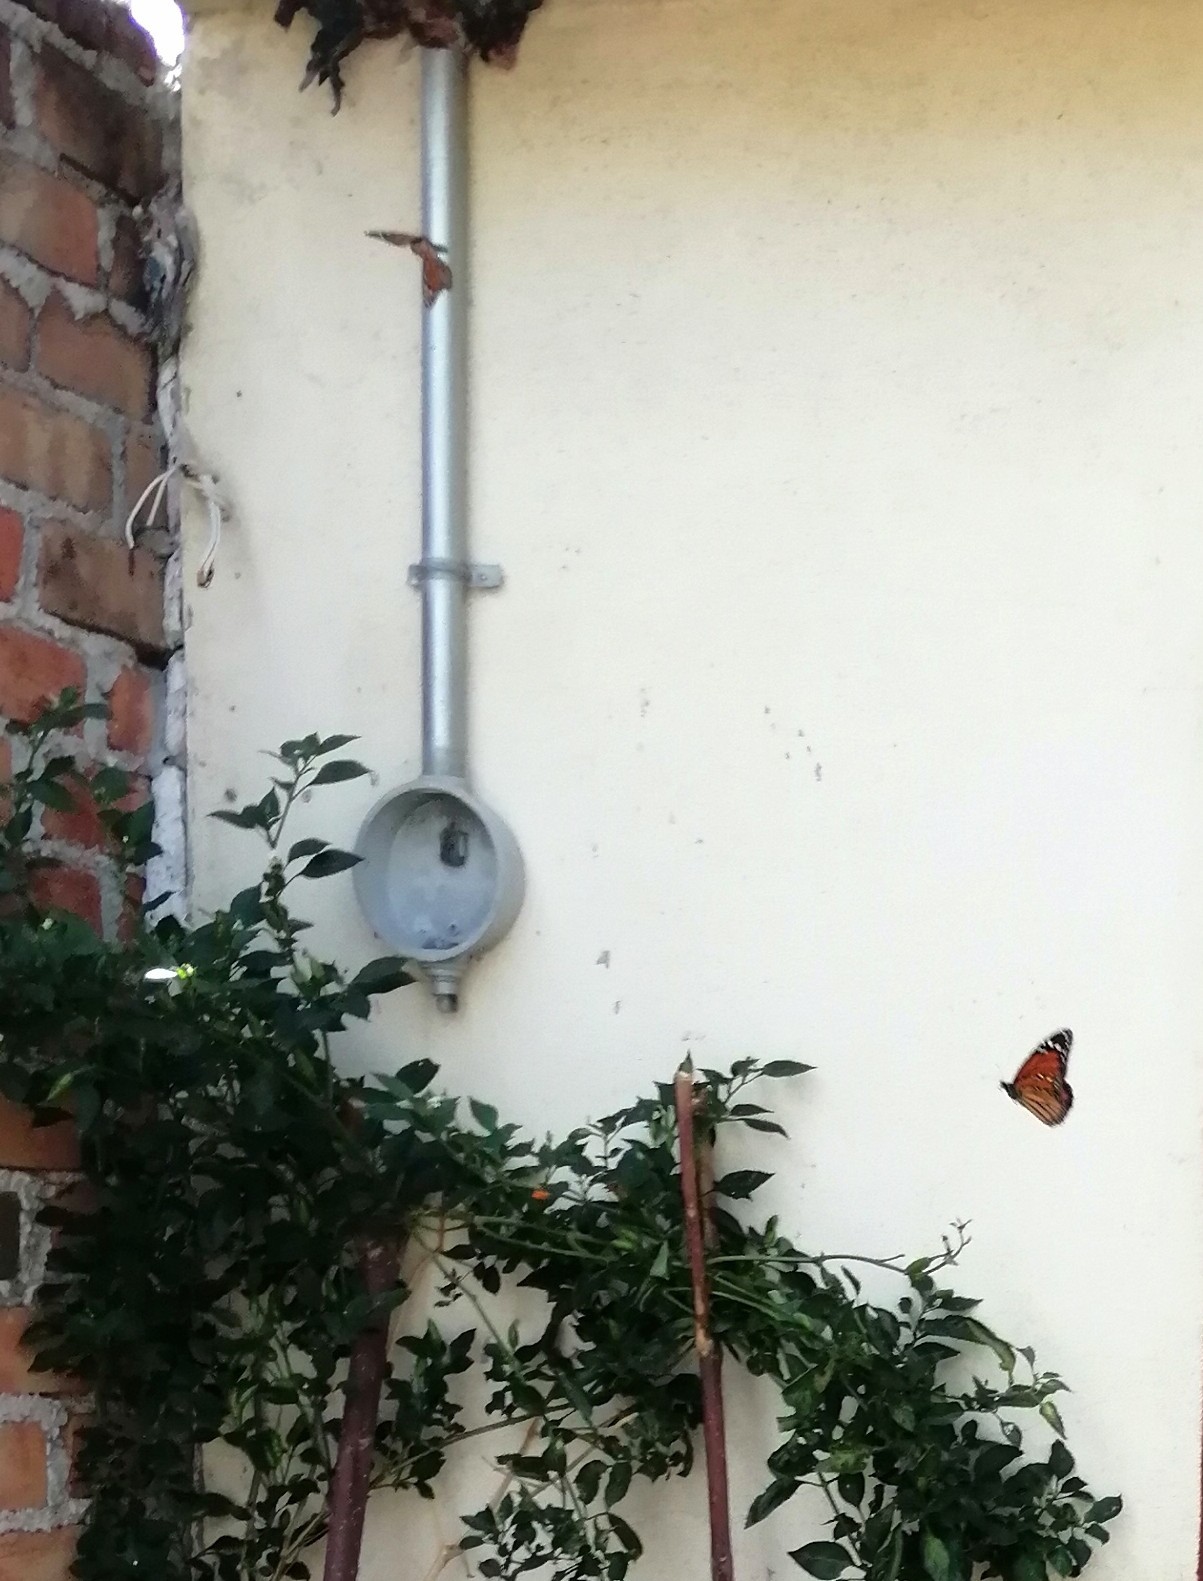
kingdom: Animalia
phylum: Arthropoda
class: Insecta
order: Lepidoptera
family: Nymphalidae
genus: Danaus
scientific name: Danaus plexippus
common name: Monarch
